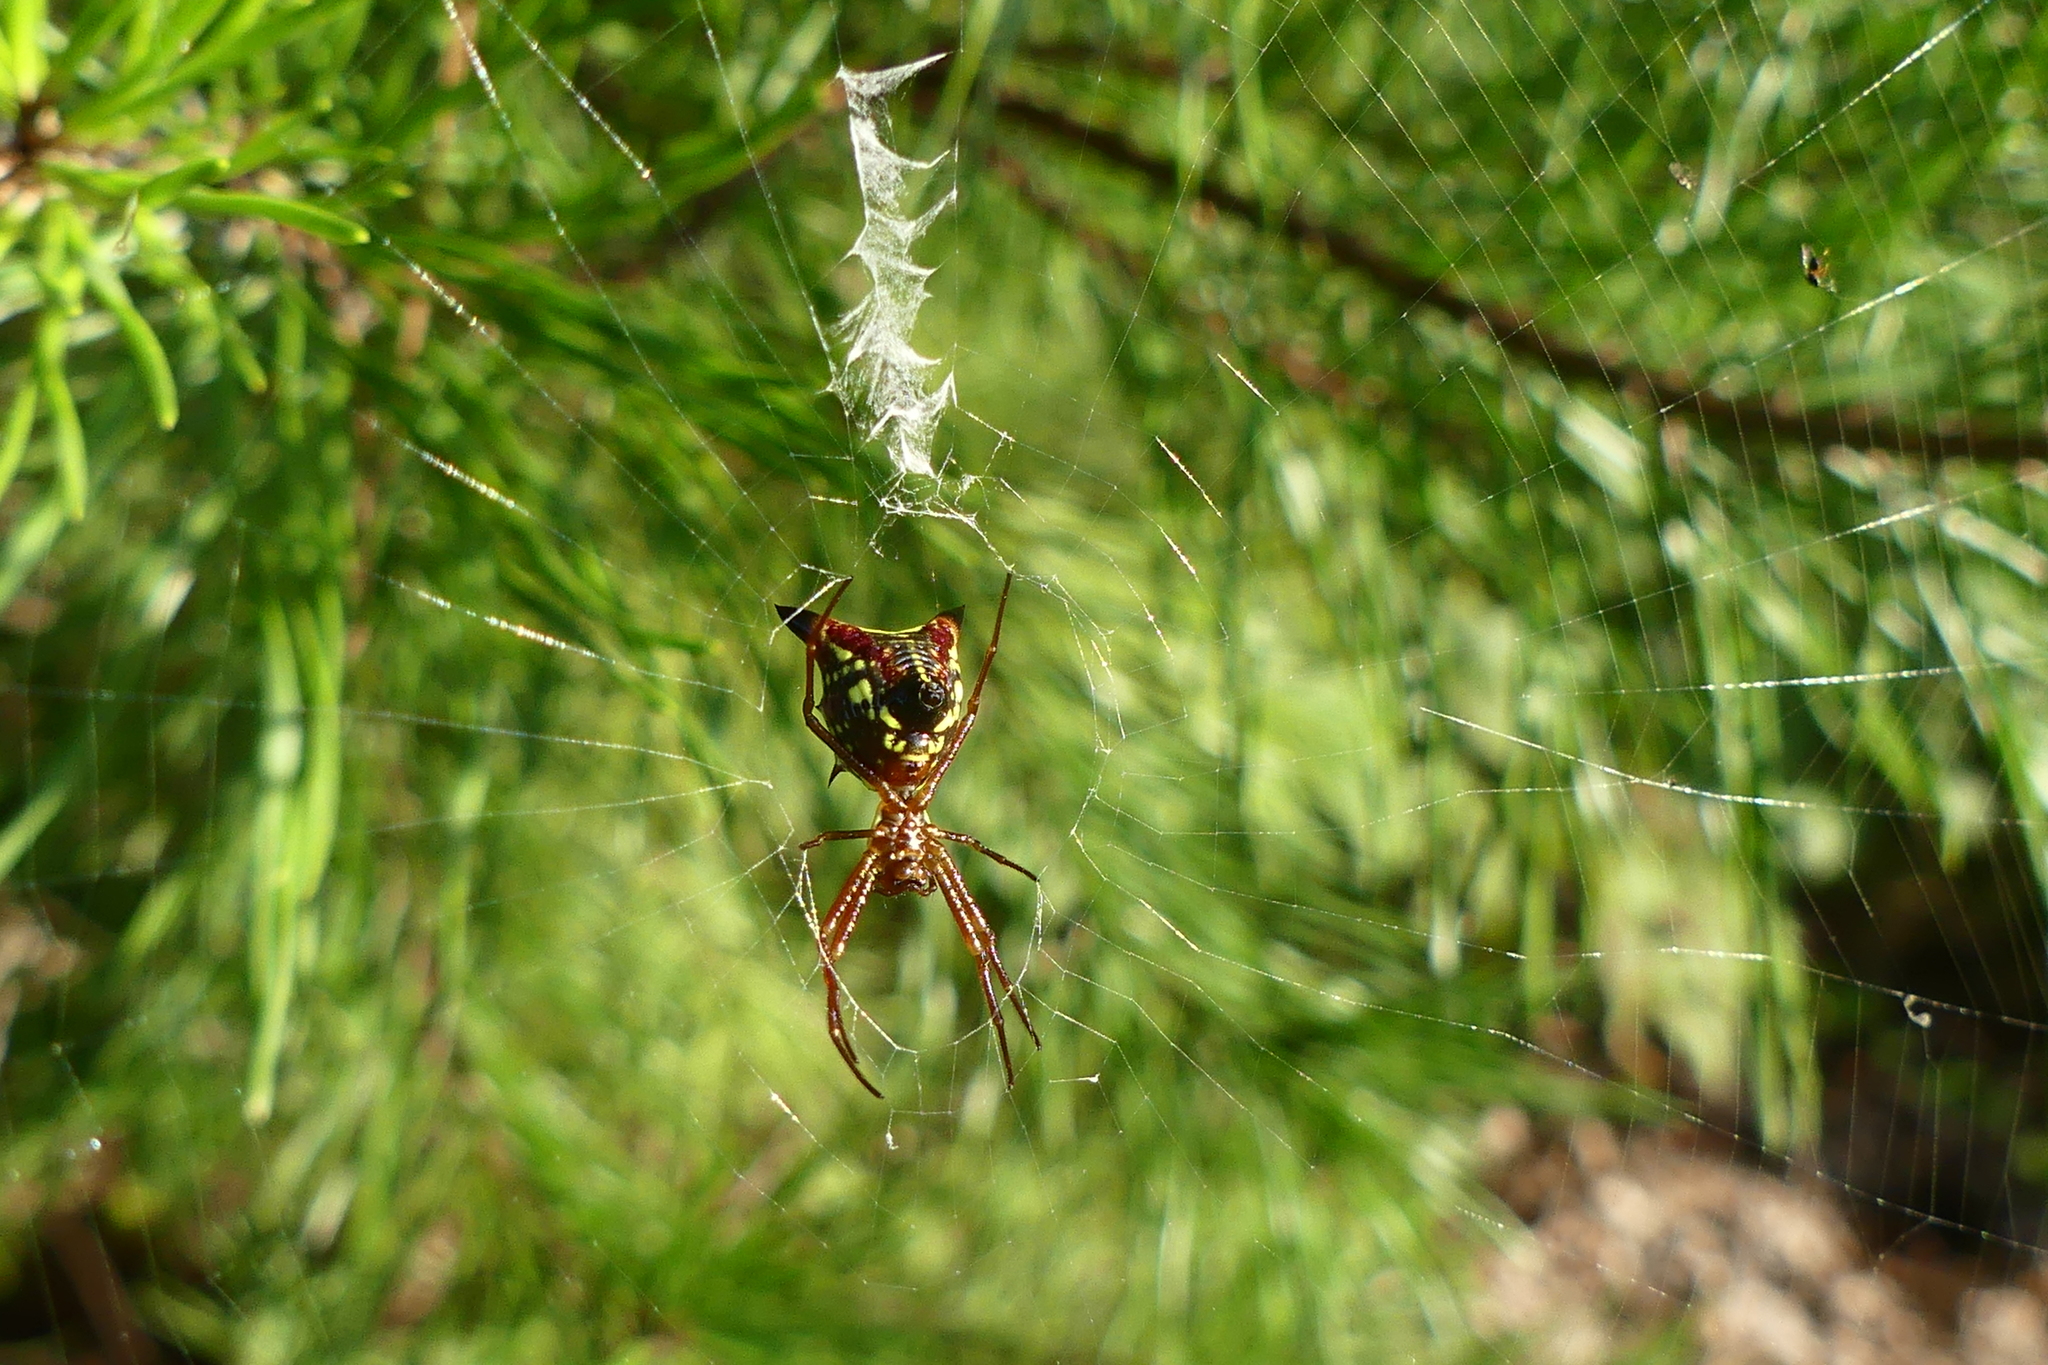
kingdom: Animalia
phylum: Arthropoda
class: Arachnida
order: Araneae
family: Araneidae
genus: Micrathena
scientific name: Micrathena sagittata
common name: Orb weavers
